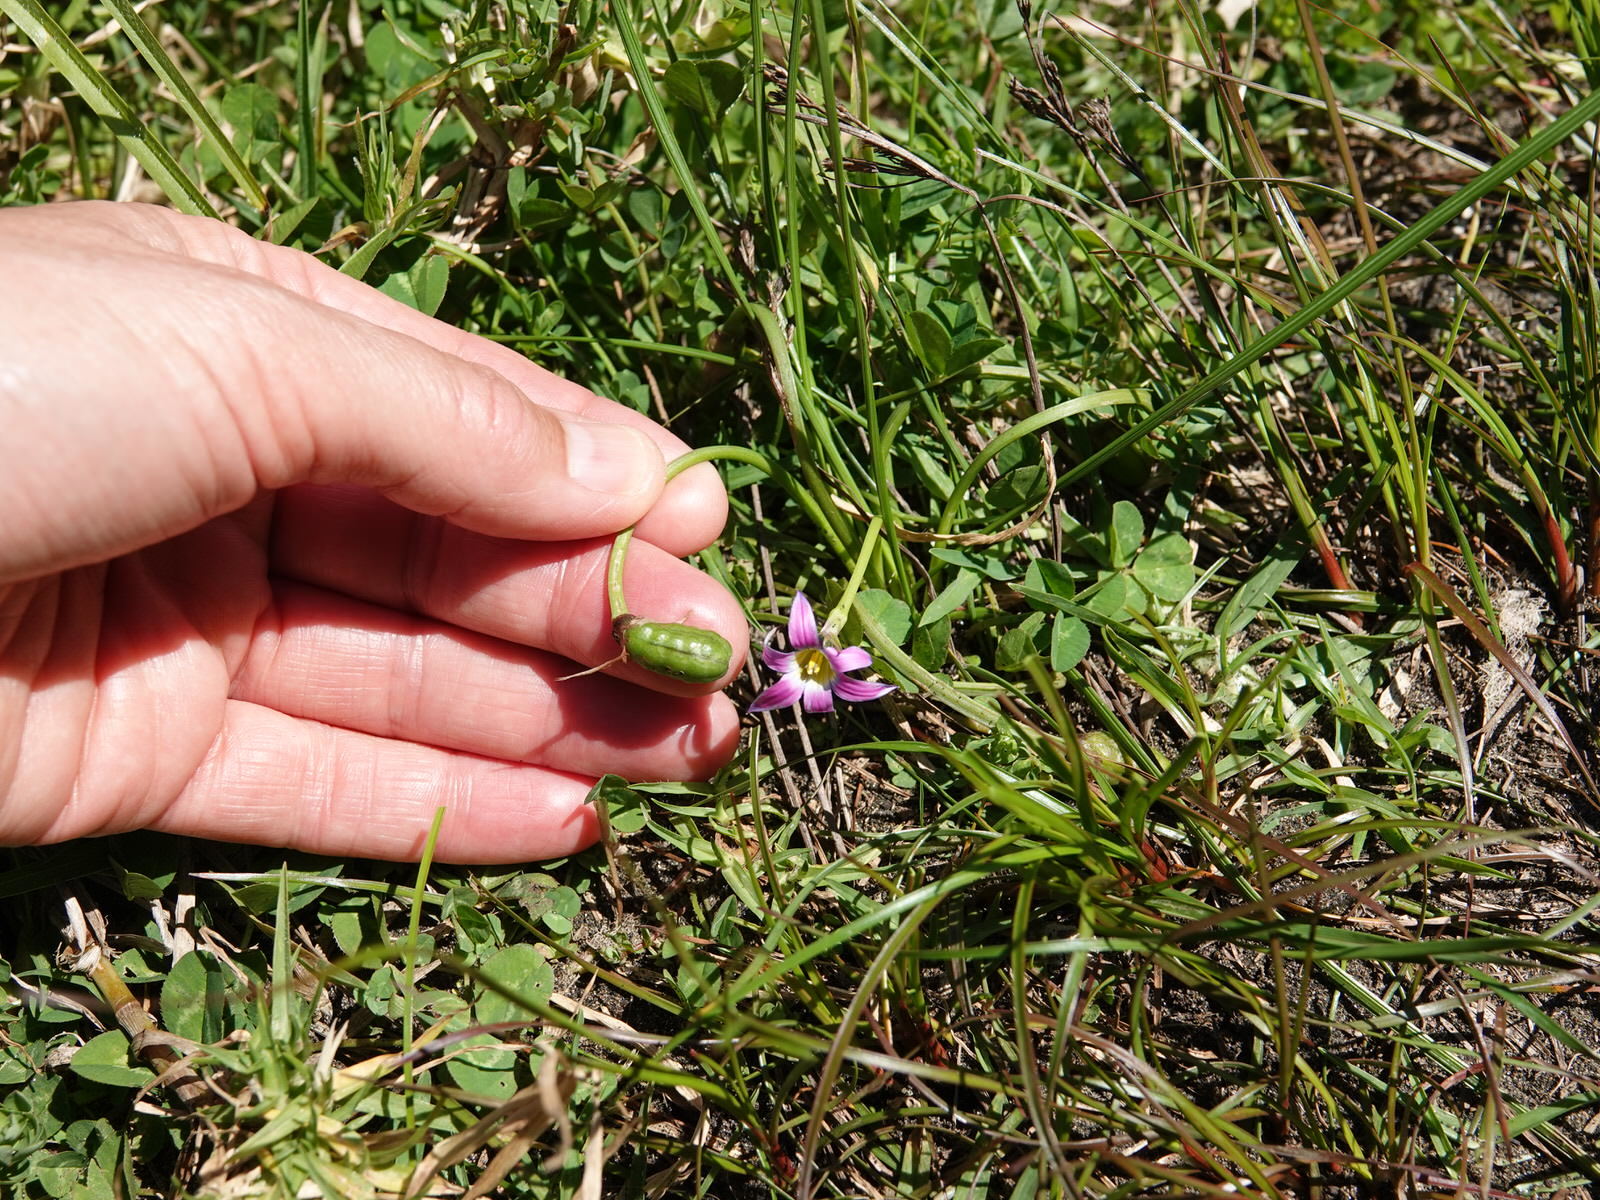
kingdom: Plantae
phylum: Tracheophyta
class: Liliopsida
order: Asparagales
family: Iridaceae
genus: Romulea
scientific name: Romulea rosea
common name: Oniongrass
